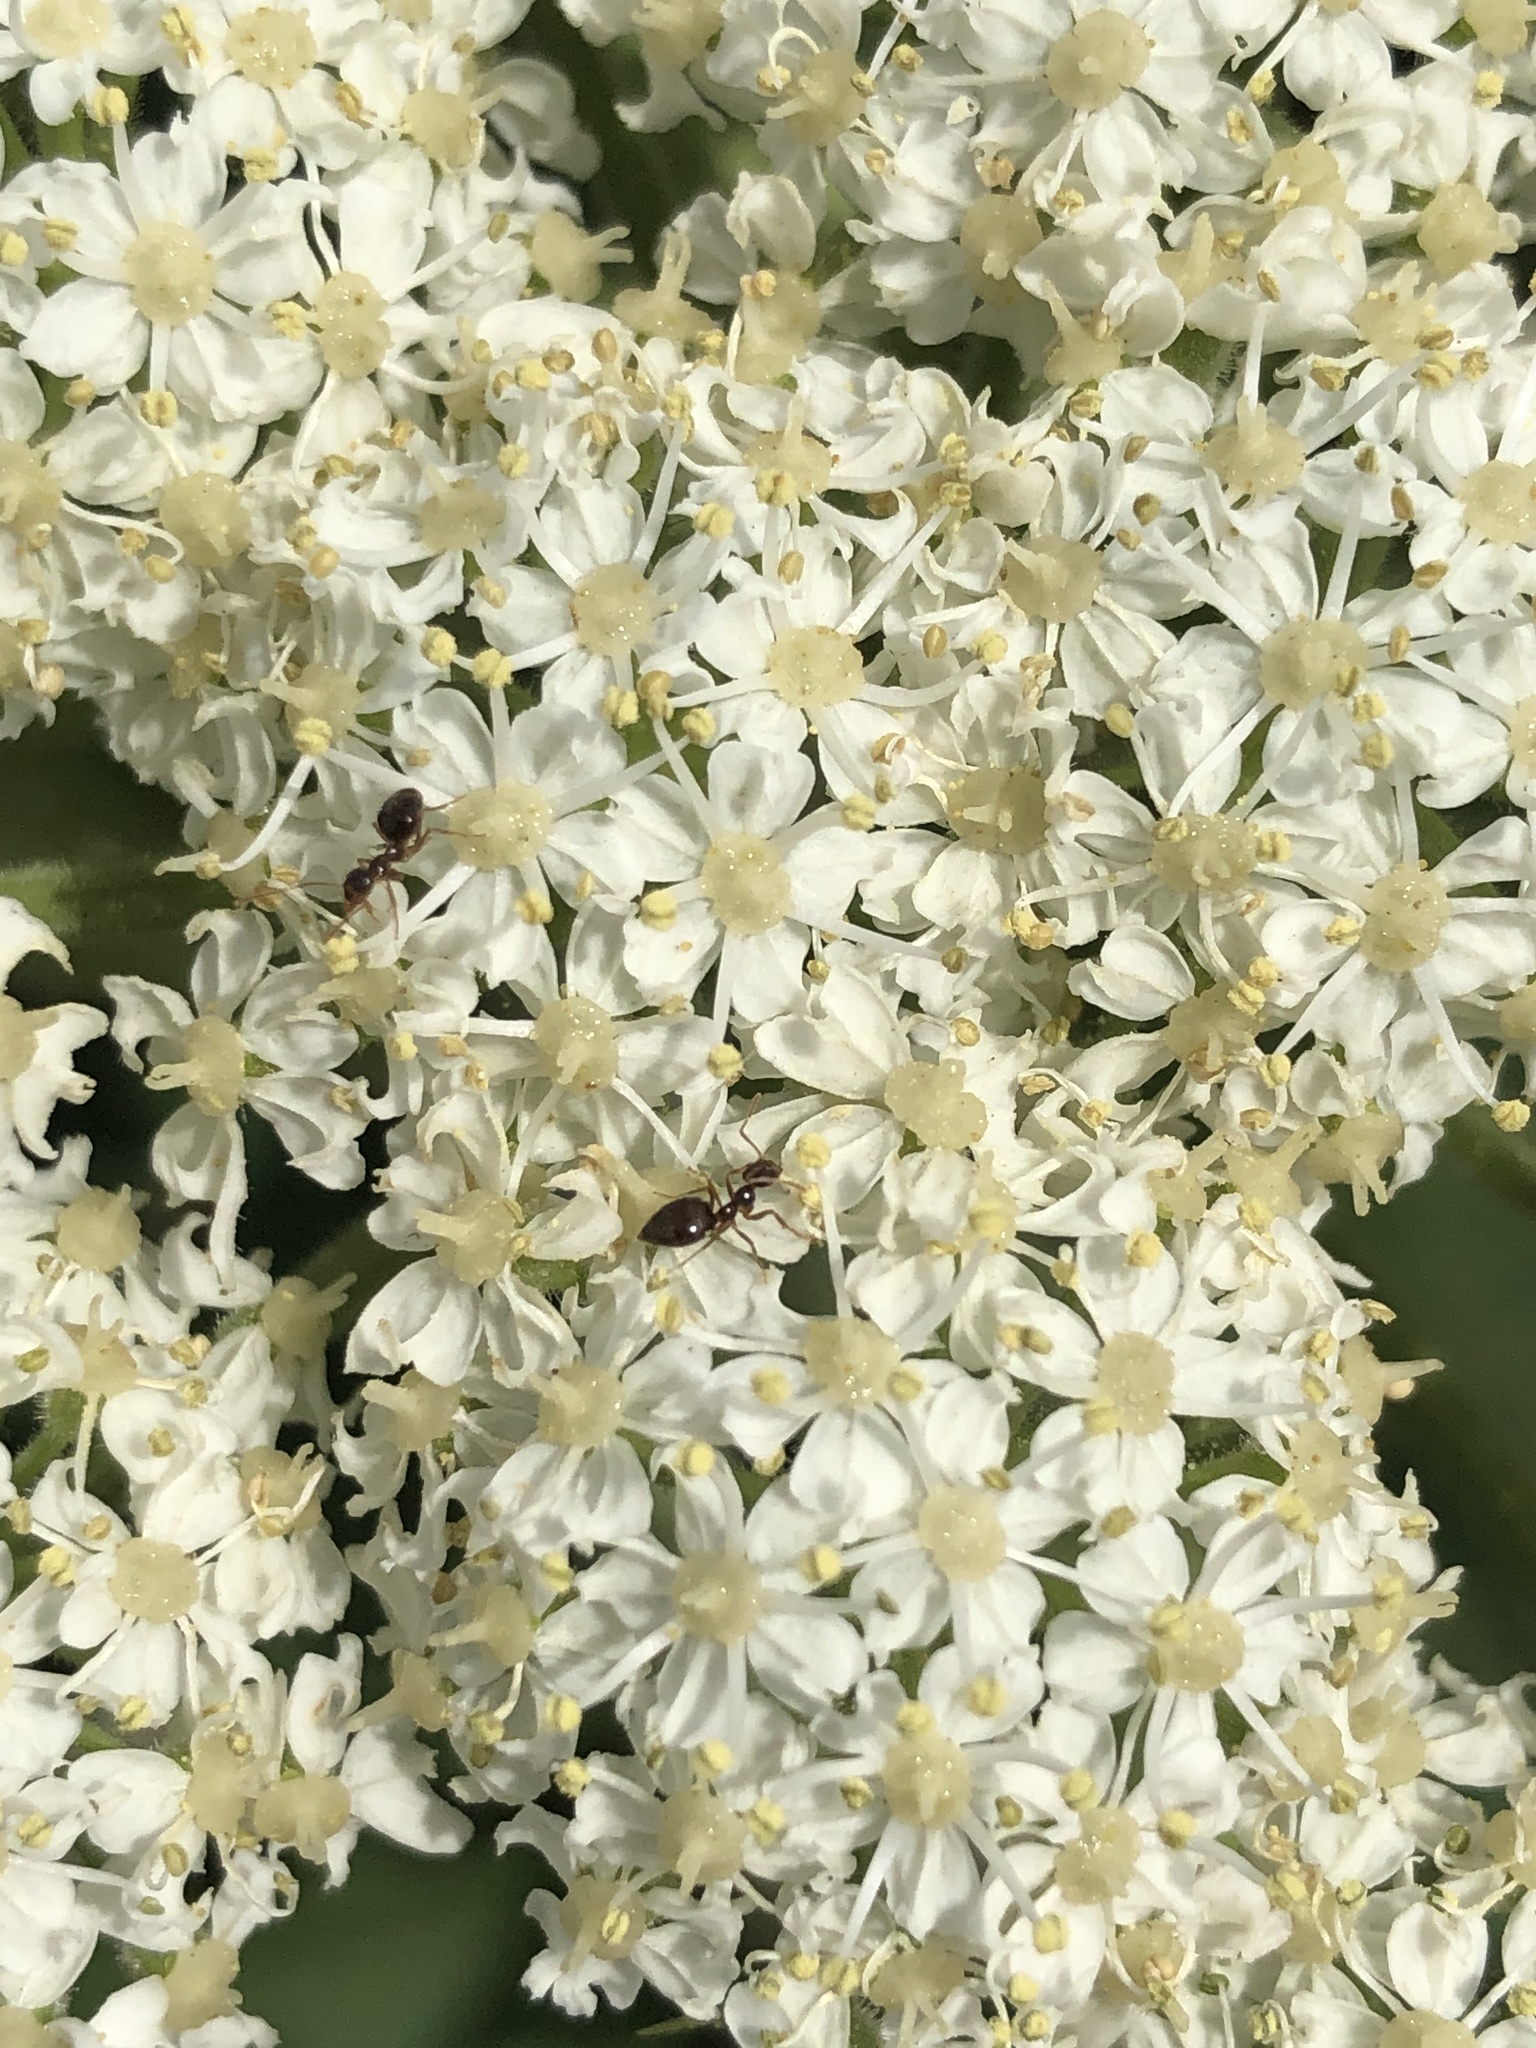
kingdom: Animalia
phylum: Arthropoda
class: Insecta
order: Hymenoptera
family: Formicidae
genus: Prenolepis
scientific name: Prenolepis imparis
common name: Small honey ant
